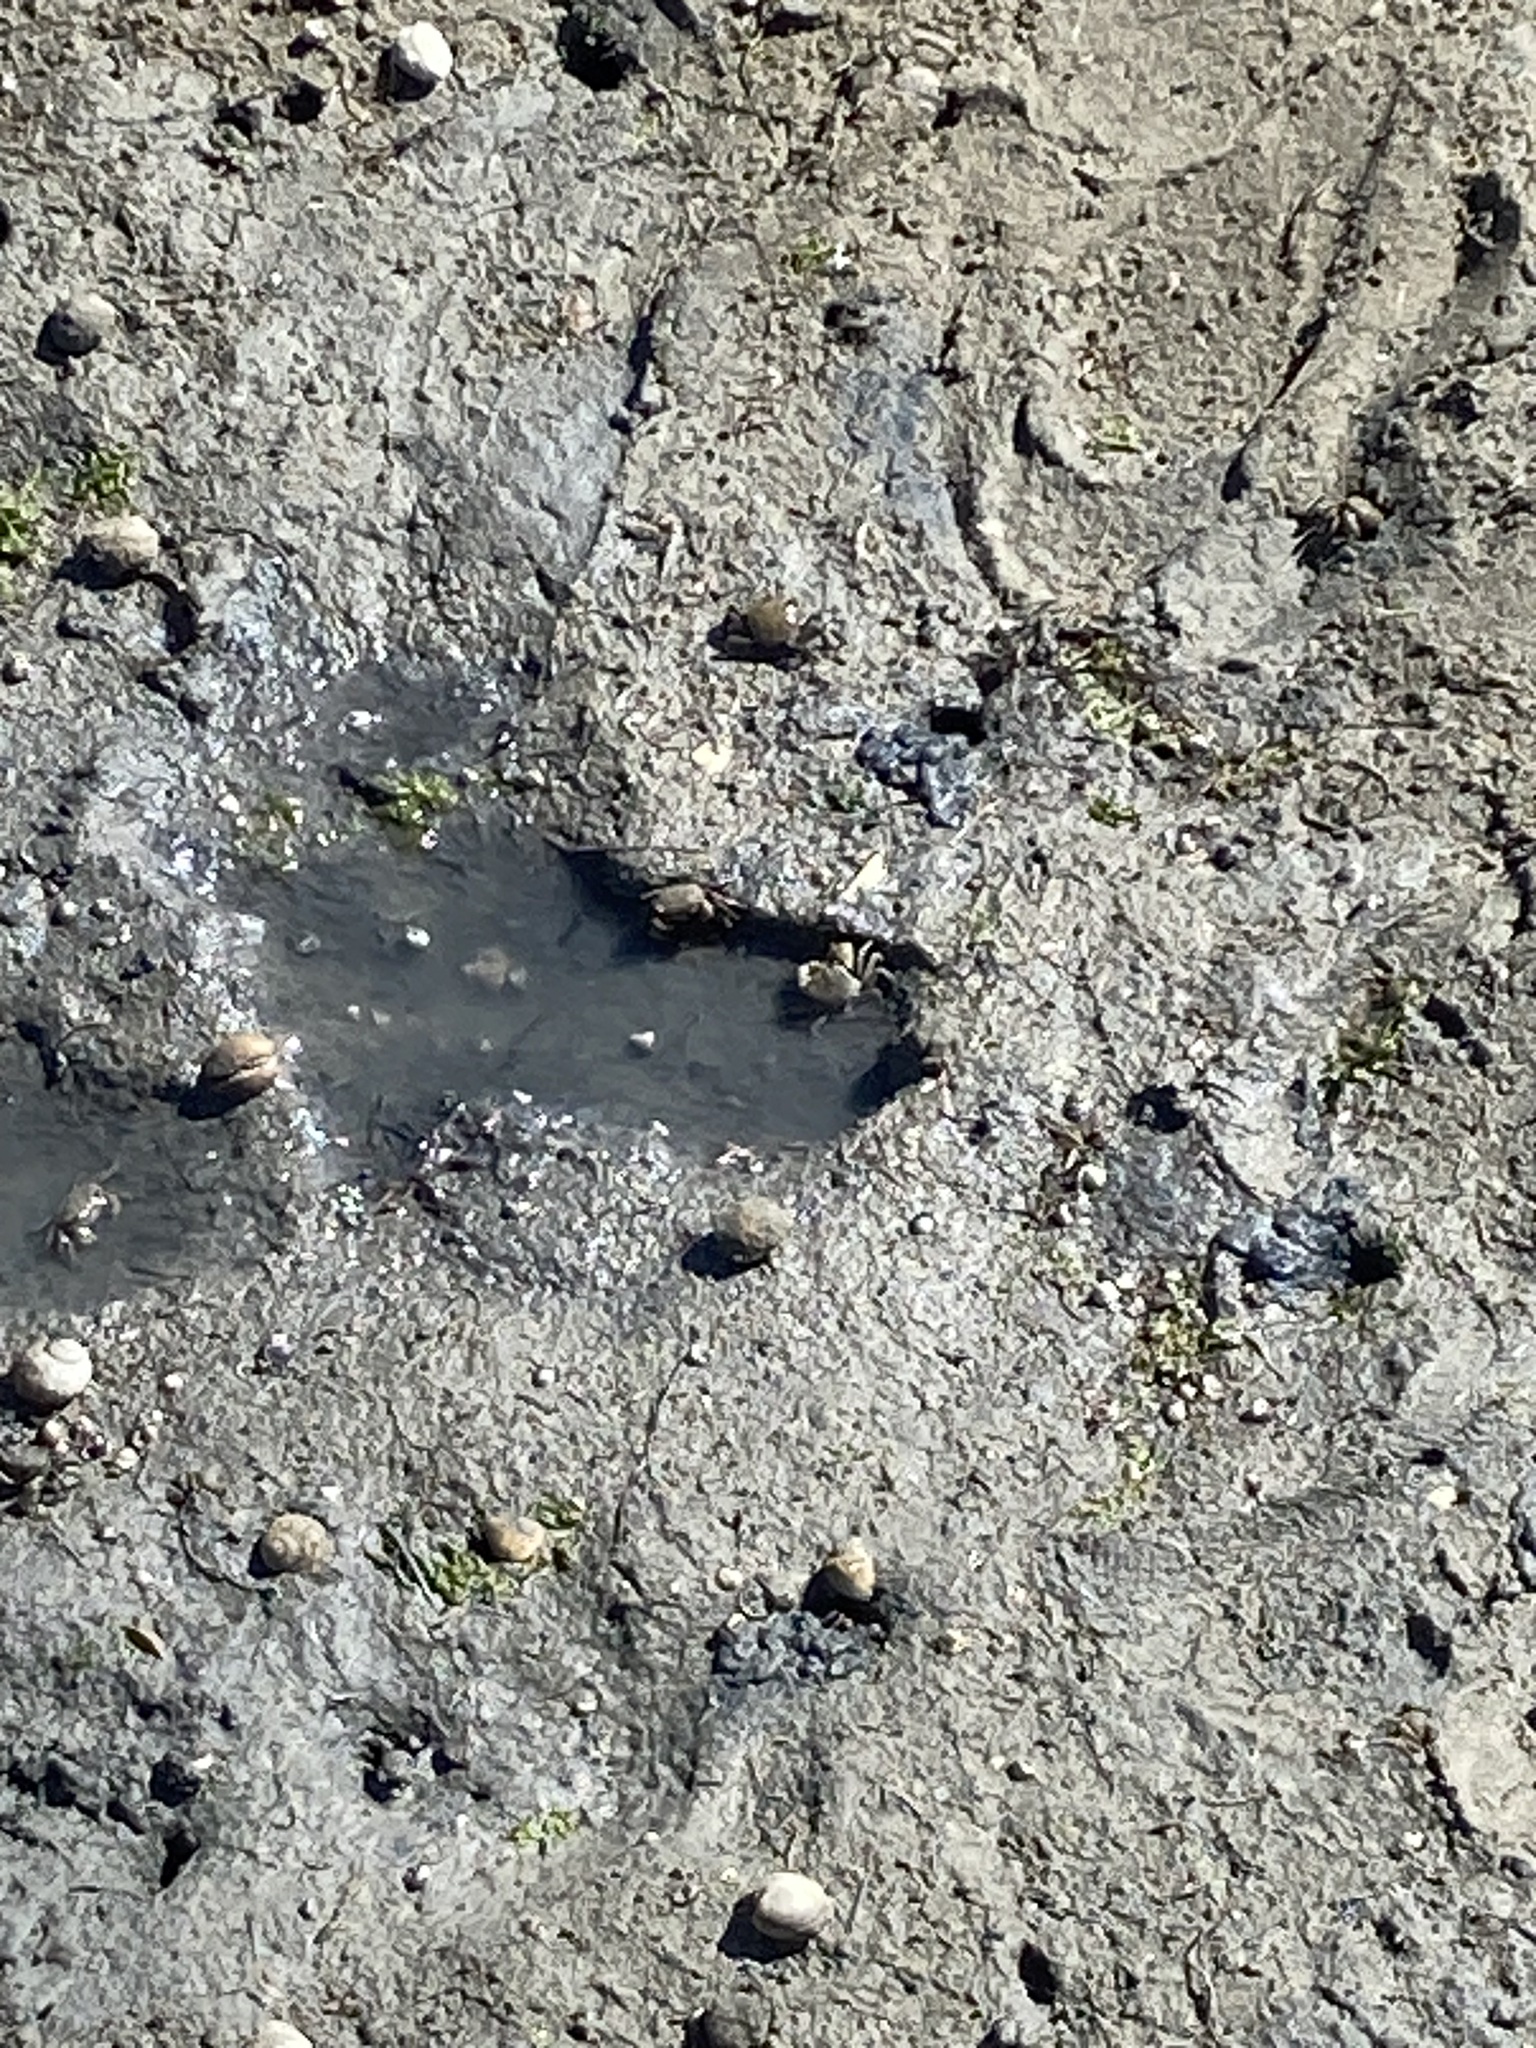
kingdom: Animalia
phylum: Arthropoda
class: Malacostraca
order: Decapoda
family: Varunidae
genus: Austrohelice
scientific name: Austrohelice crassa
